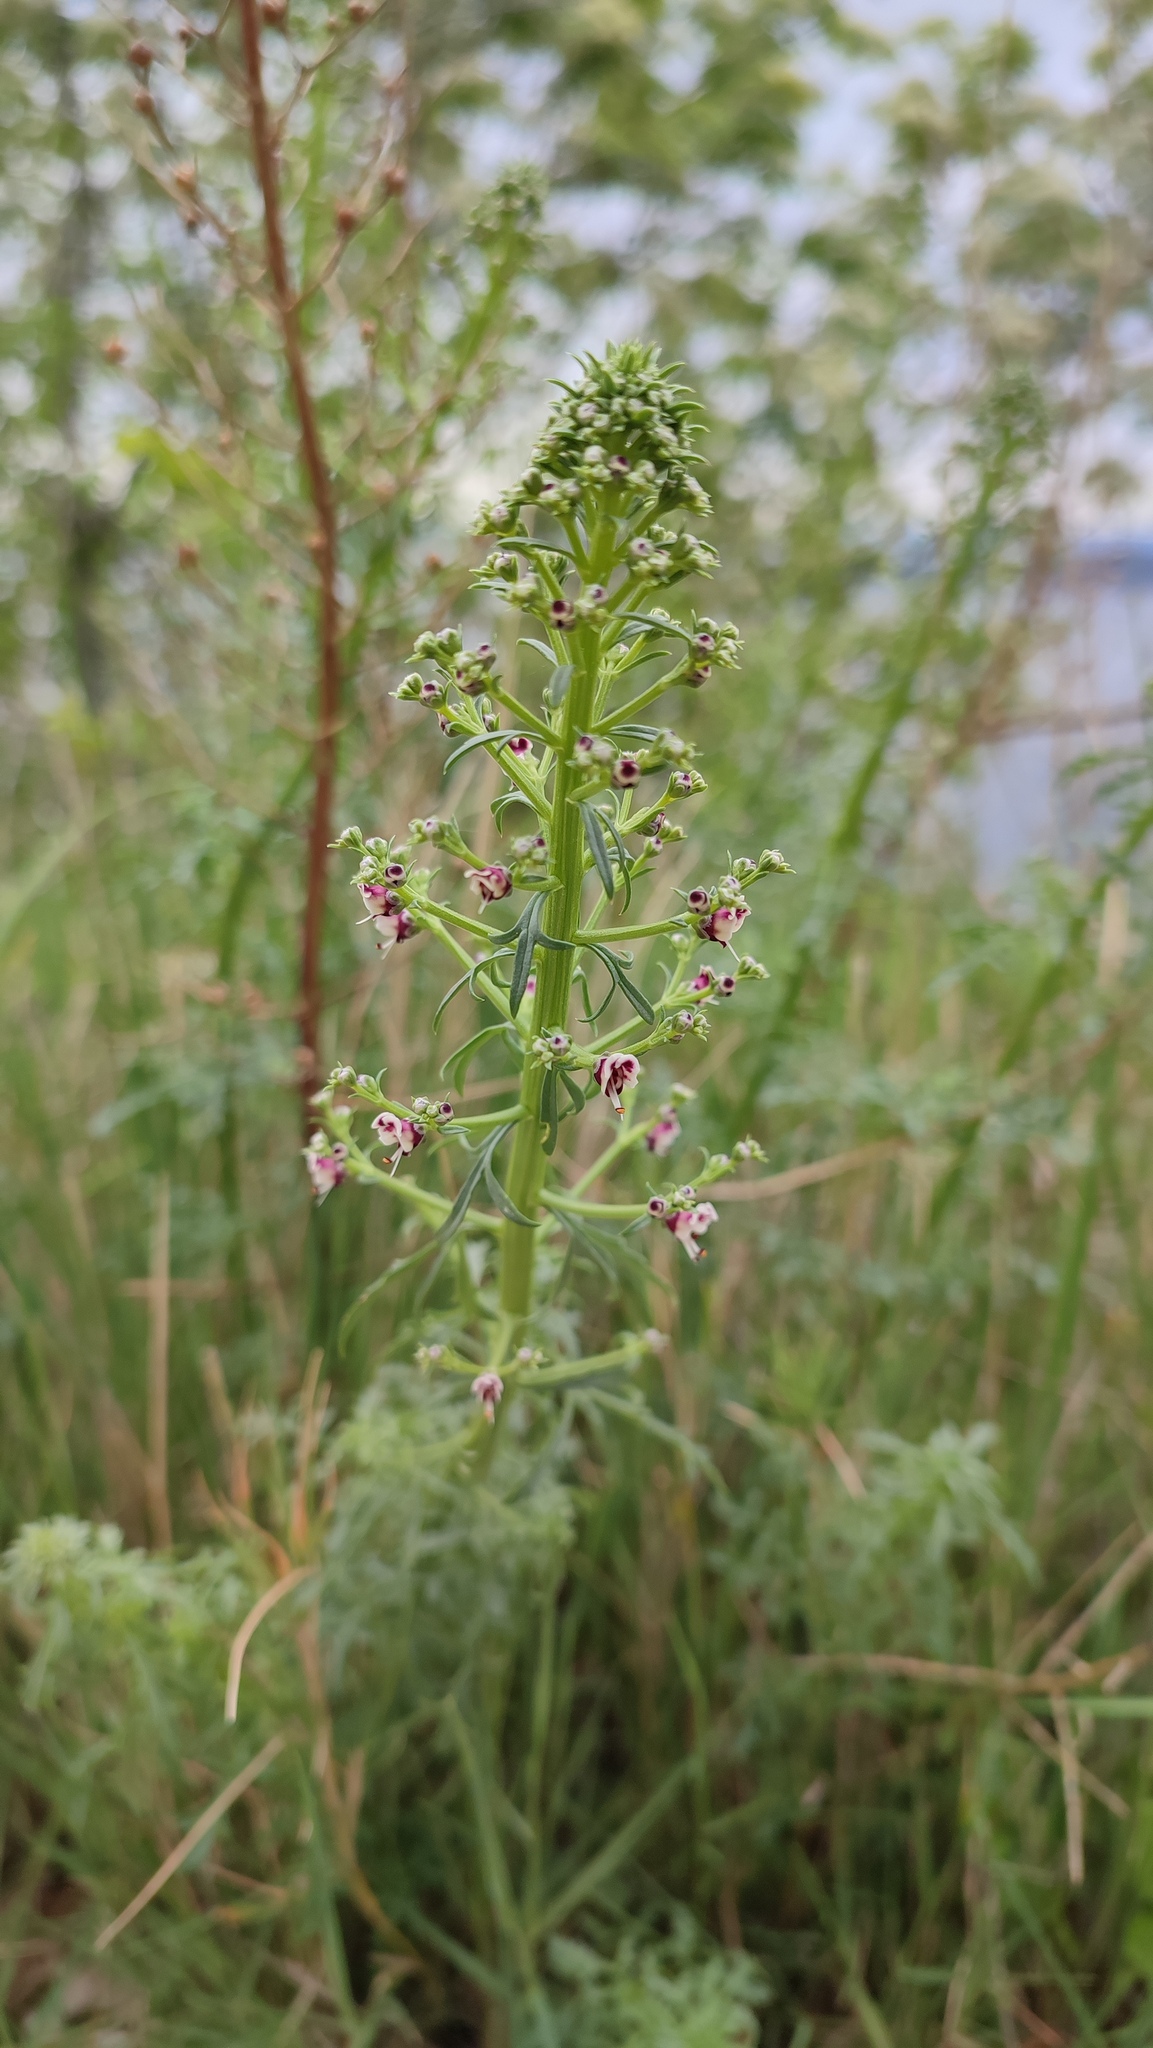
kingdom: Plantae
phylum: Tracheophyta
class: Magnoliopsida
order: Lamiales
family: Scrophulariaceae
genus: Scrophularia
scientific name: Scrophularia canina
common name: French figwort
